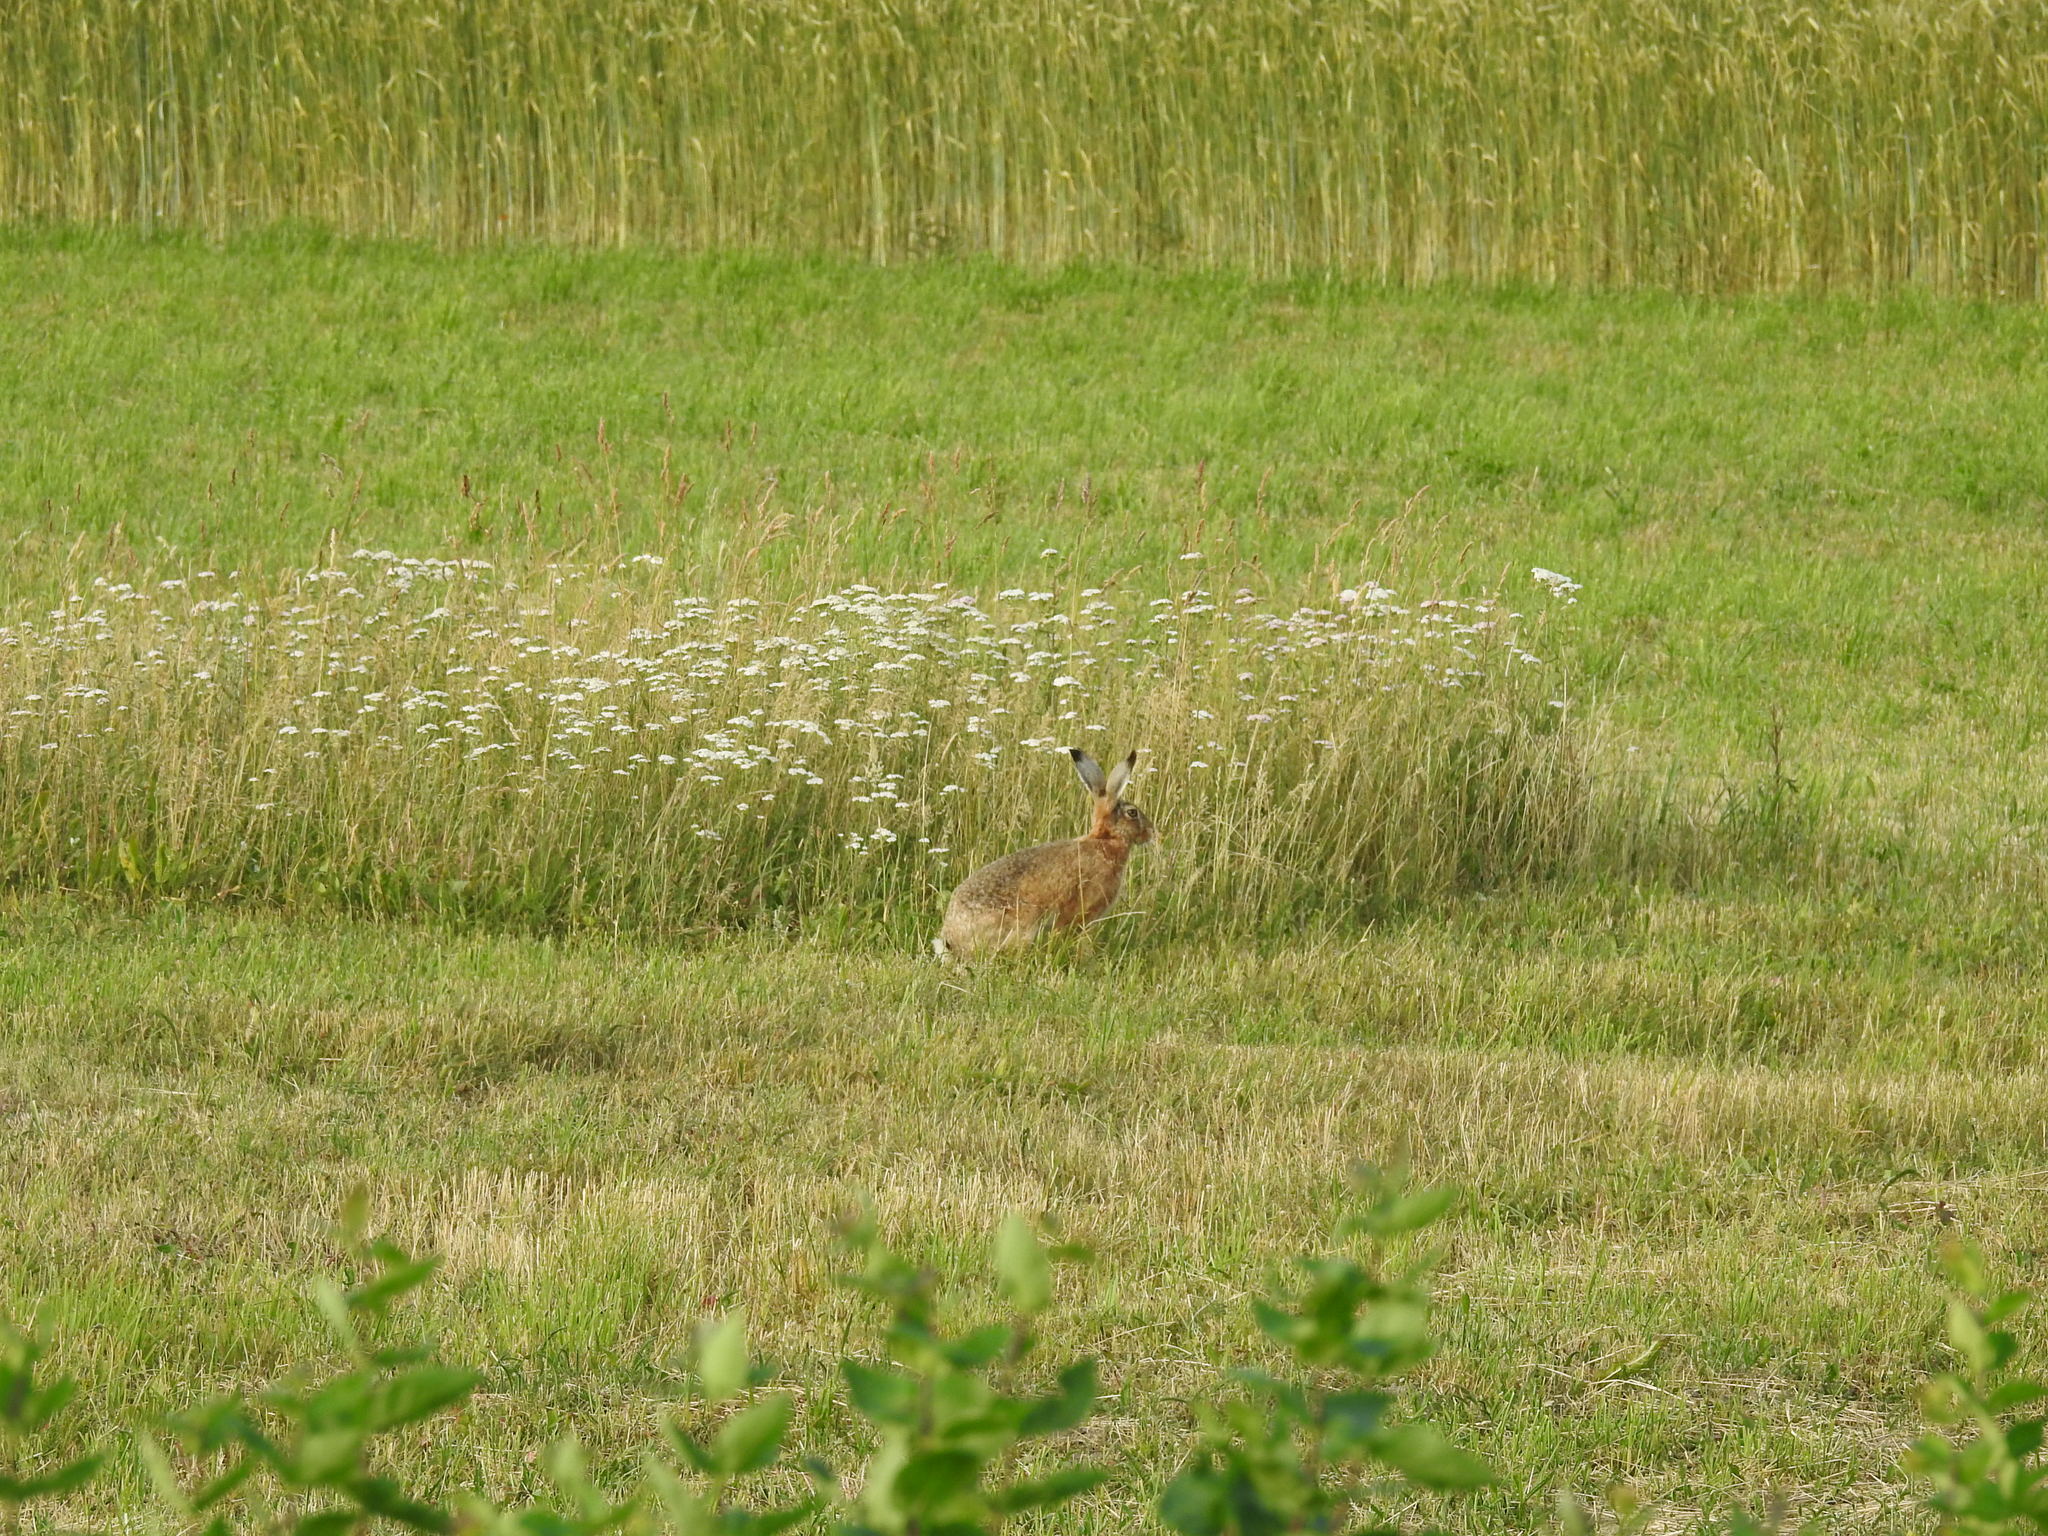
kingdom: Animalia
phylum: Chordata
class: Mammalia
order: Lagomorpha
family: Leporidae
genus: Lepus
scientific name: Lepus europaeus
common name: European hare
